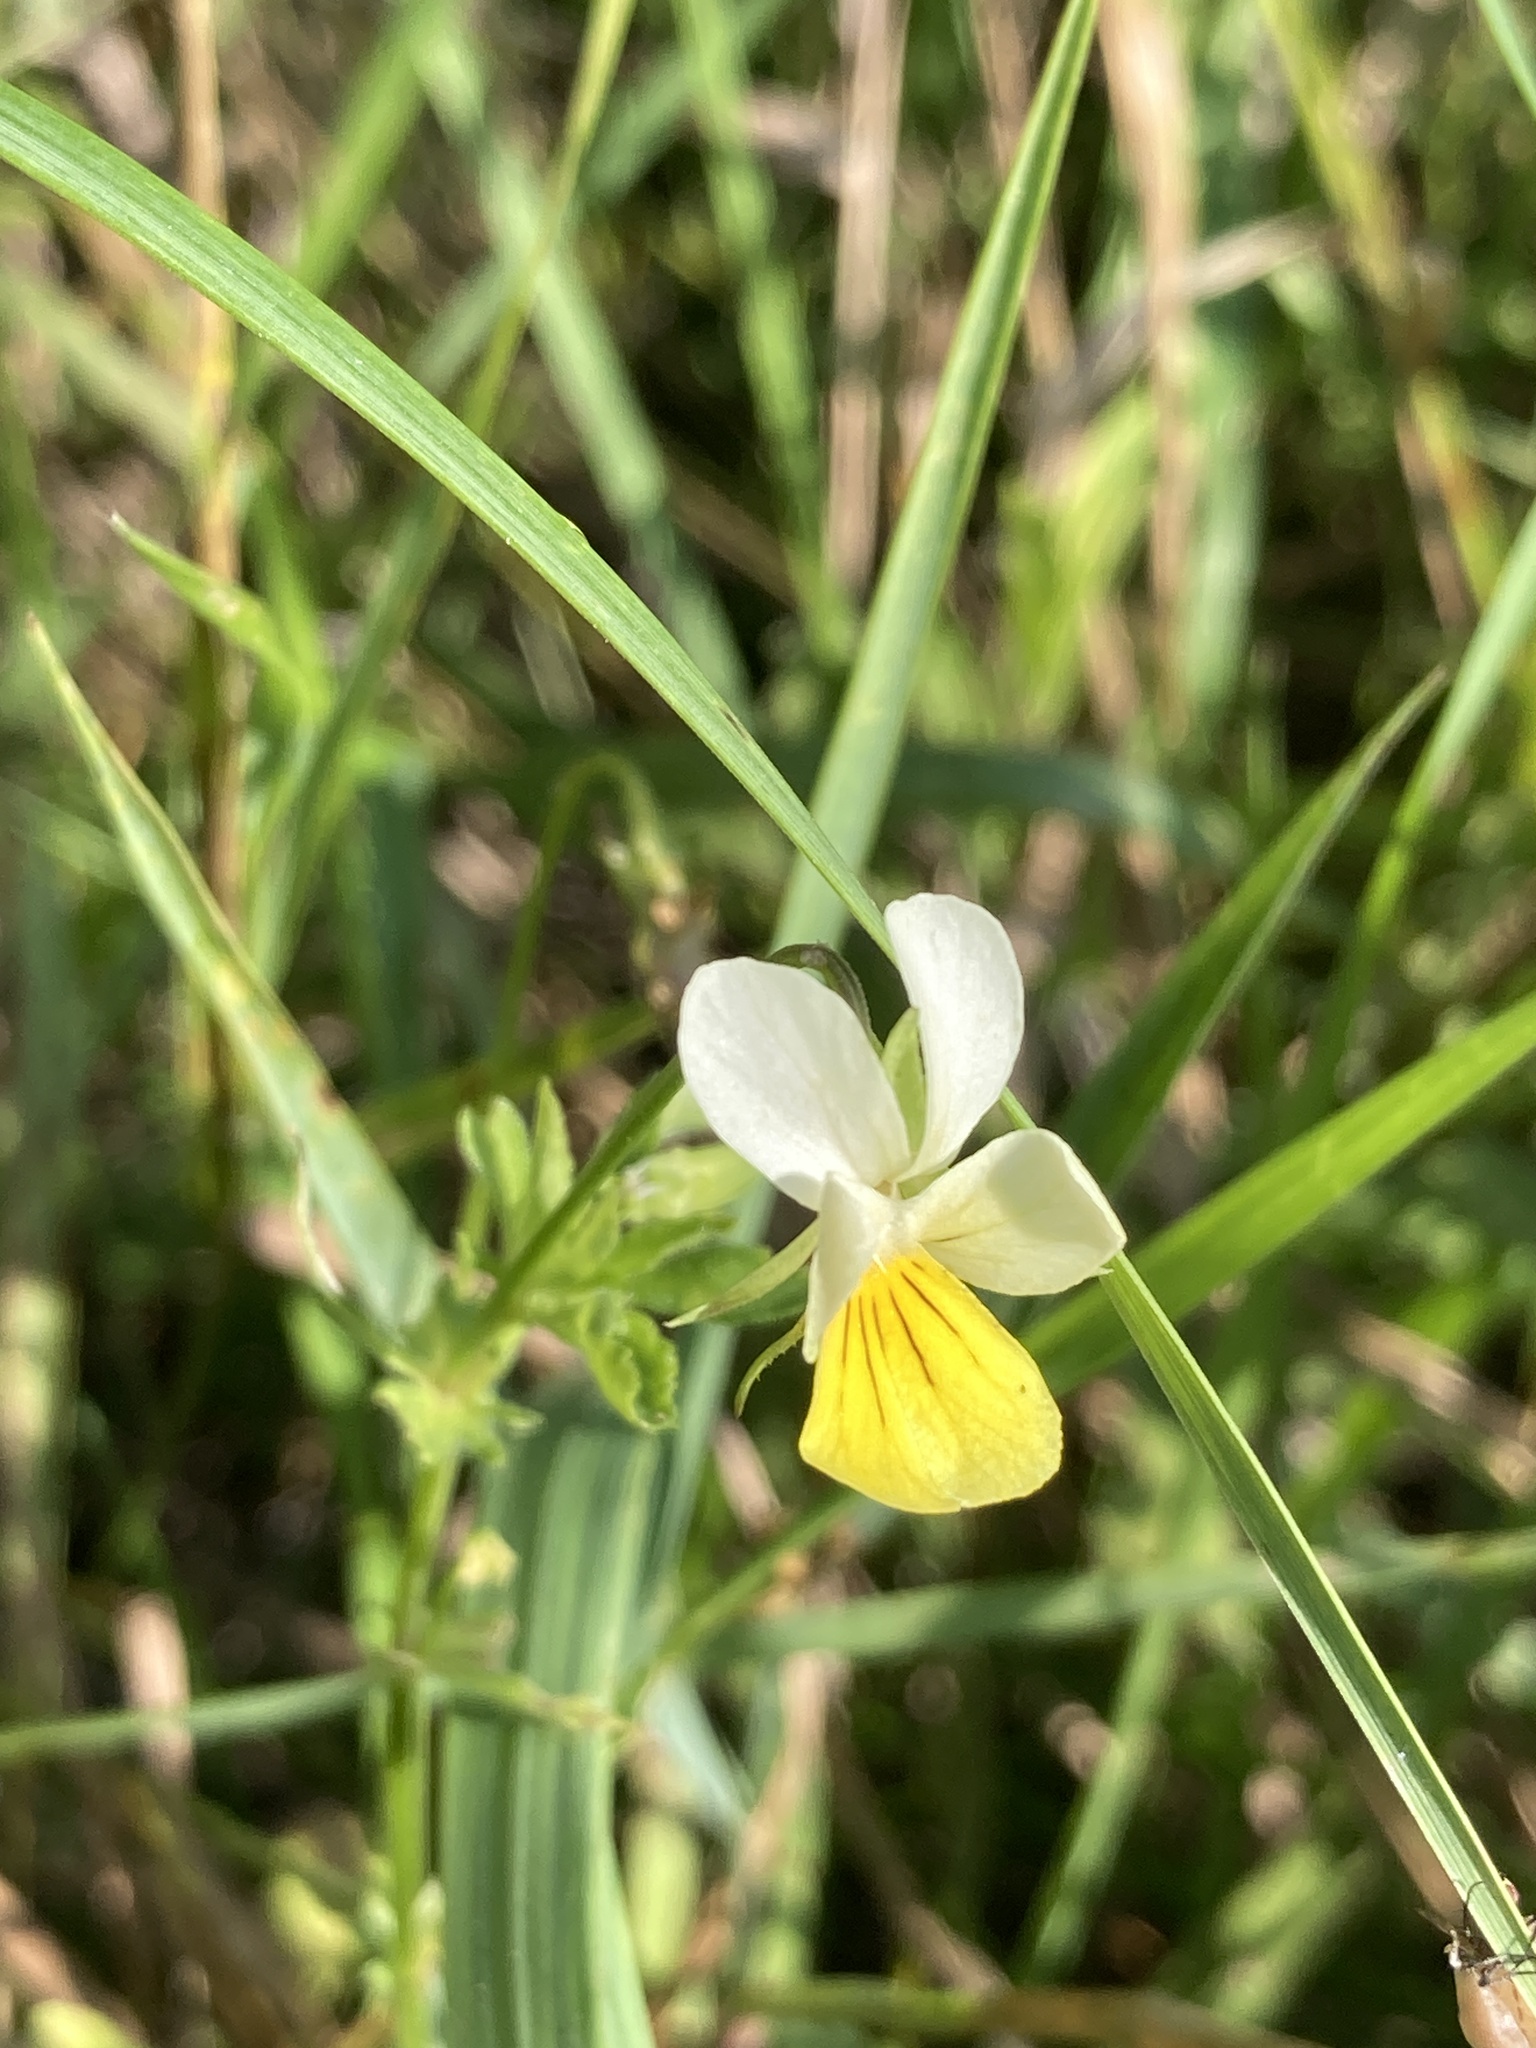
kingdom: Plantae
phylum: Tracheophyta
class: Magnoliopsida
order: Malpighiales
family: Violaceae
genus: Viola
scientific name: Viola arvensis
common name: Field pansy
